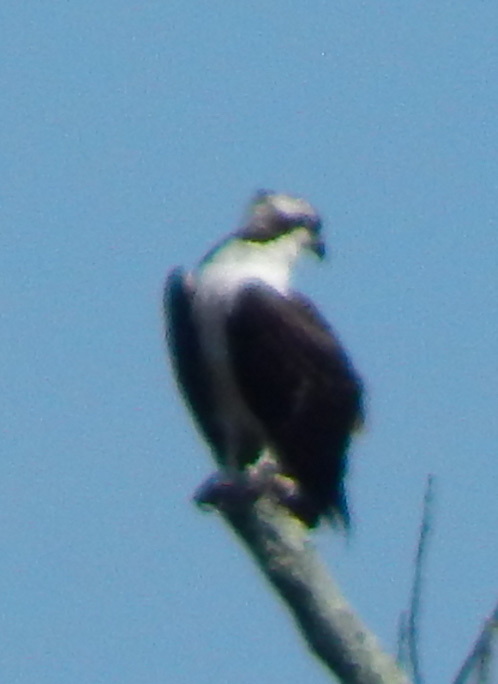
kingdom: Animalia
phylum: Chordata
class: Aves
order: Accipitriformes
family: Pandionidae
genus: Pandion
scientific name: Pandion haliaetus
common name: Osprey
